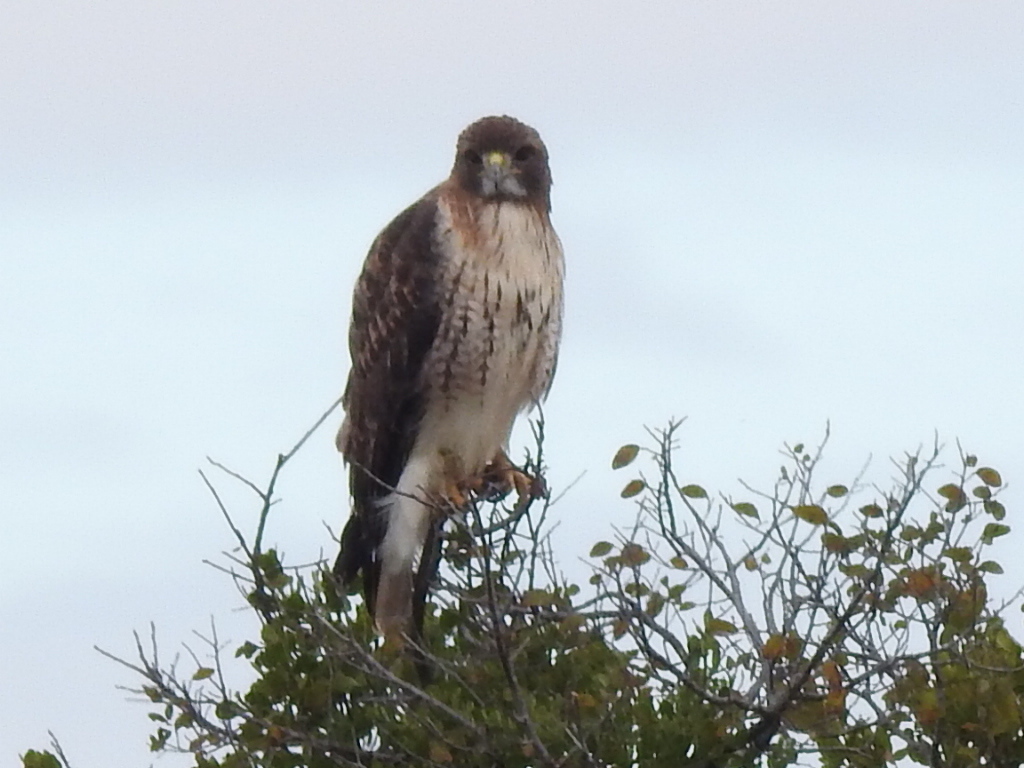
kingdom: Animalia
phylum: Chordata
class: Aves
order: Accipitriformes
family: Accipitridae
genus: Buteo
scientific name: Buteo jamaicensis
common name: Red-tailed hawk
